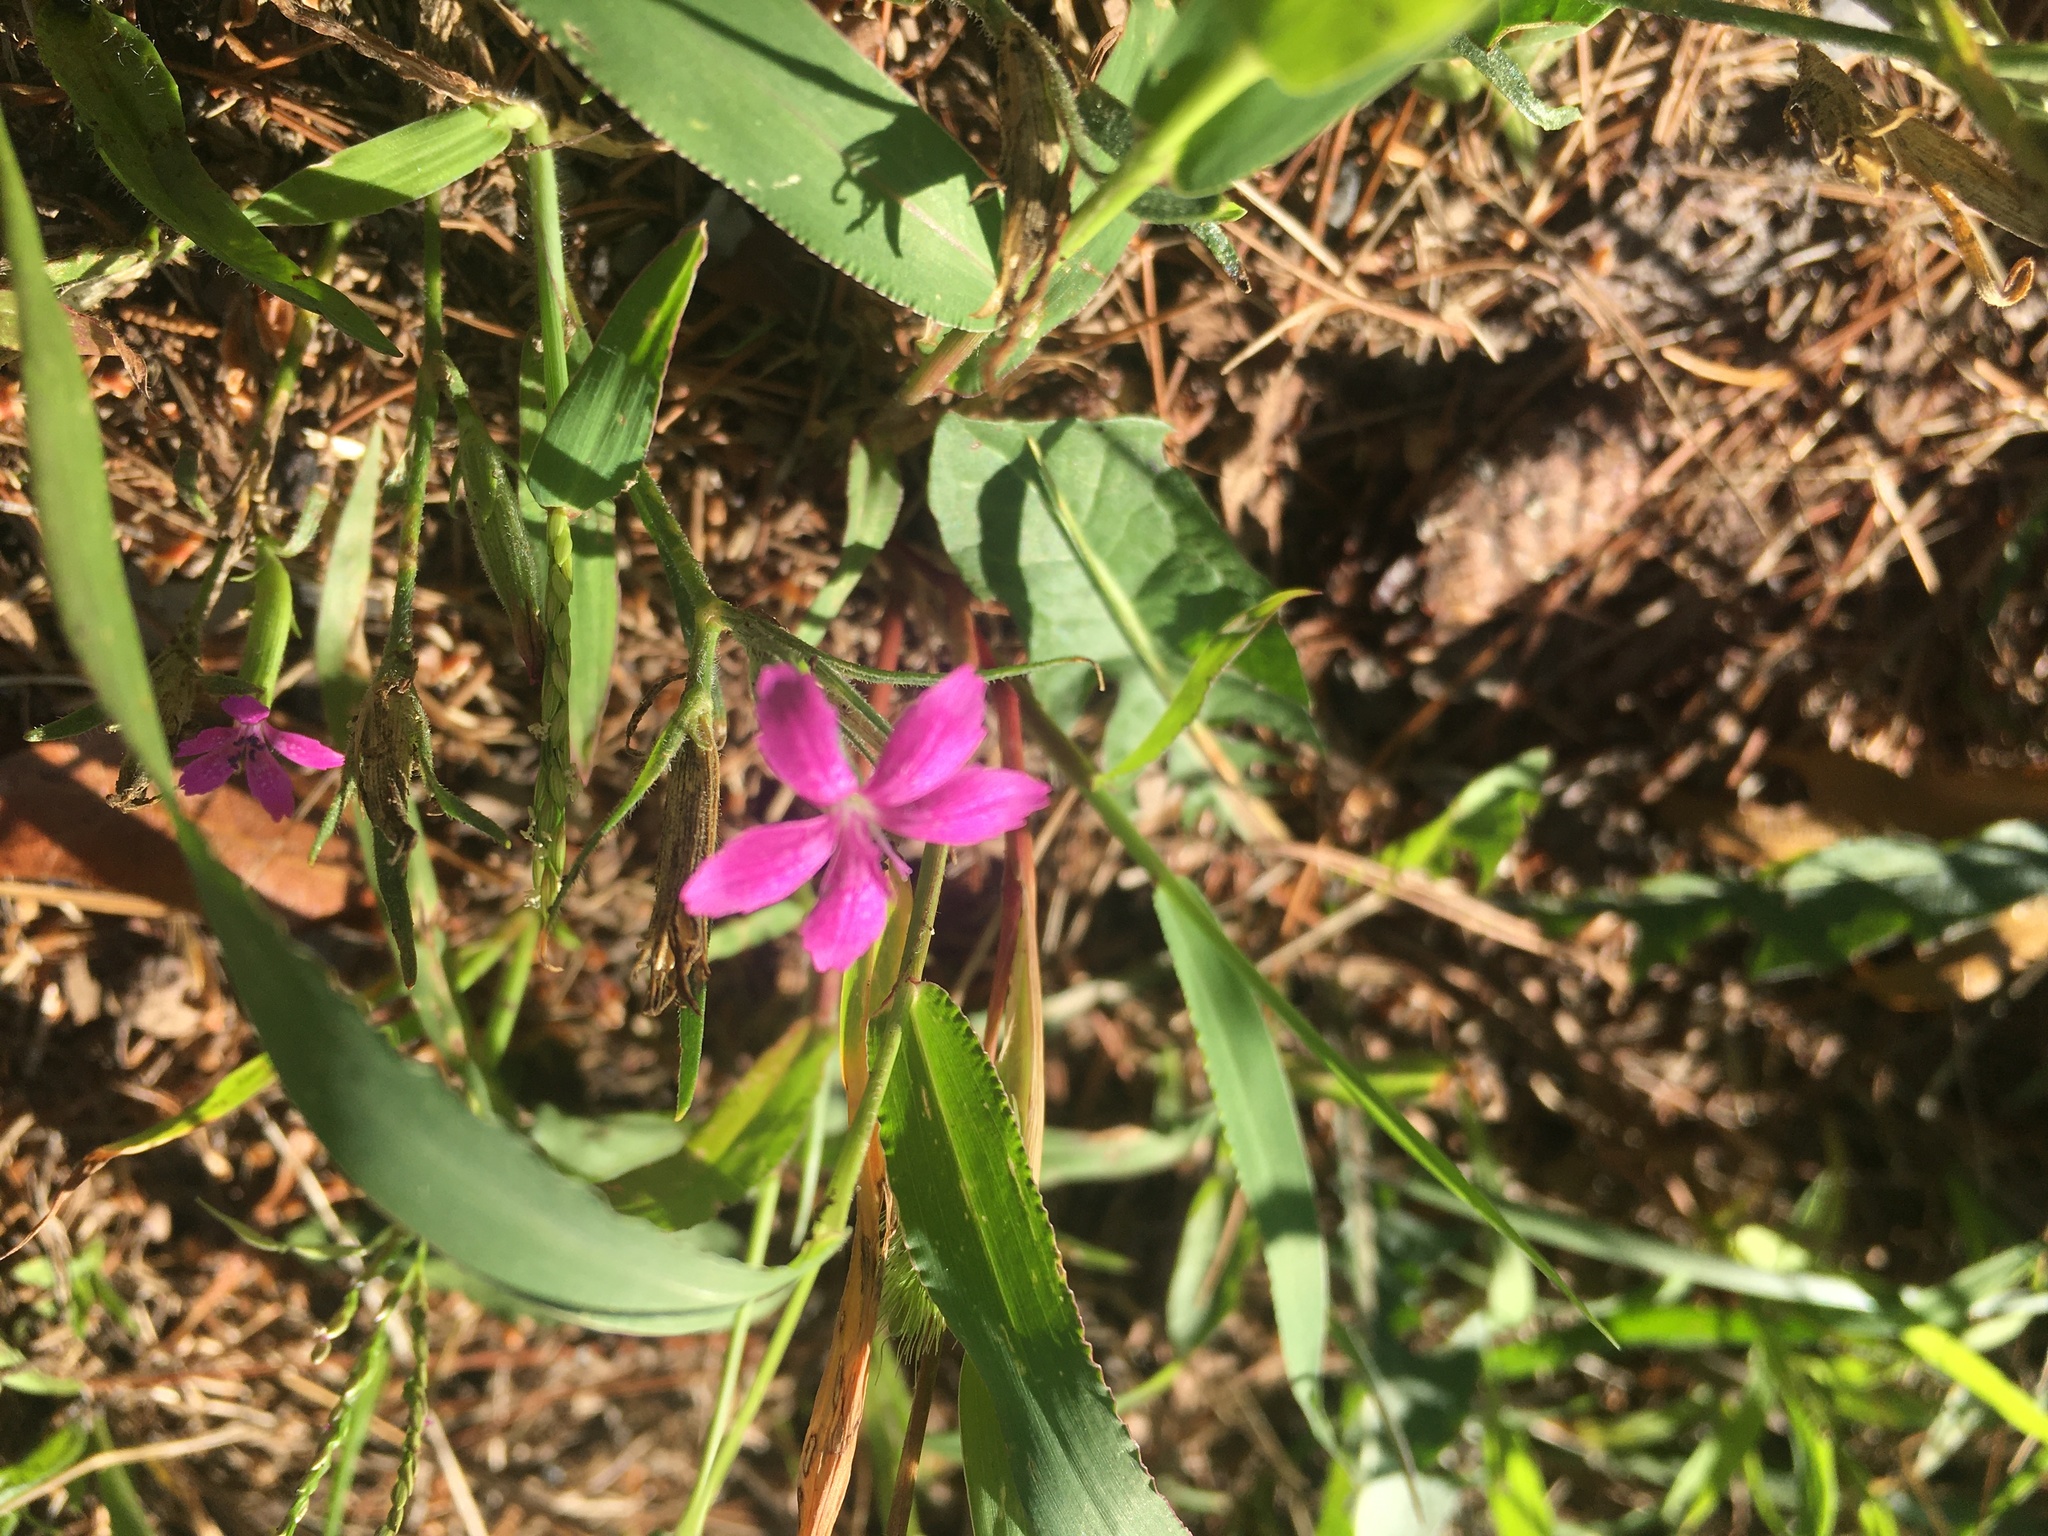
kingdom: Plantae
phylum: Tracheophyta
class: Magnoliopsida
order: Caryophyllales
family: Caryophyllaceae
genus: Dianthus
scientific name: Dianthus armeria
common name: Deptford pink
